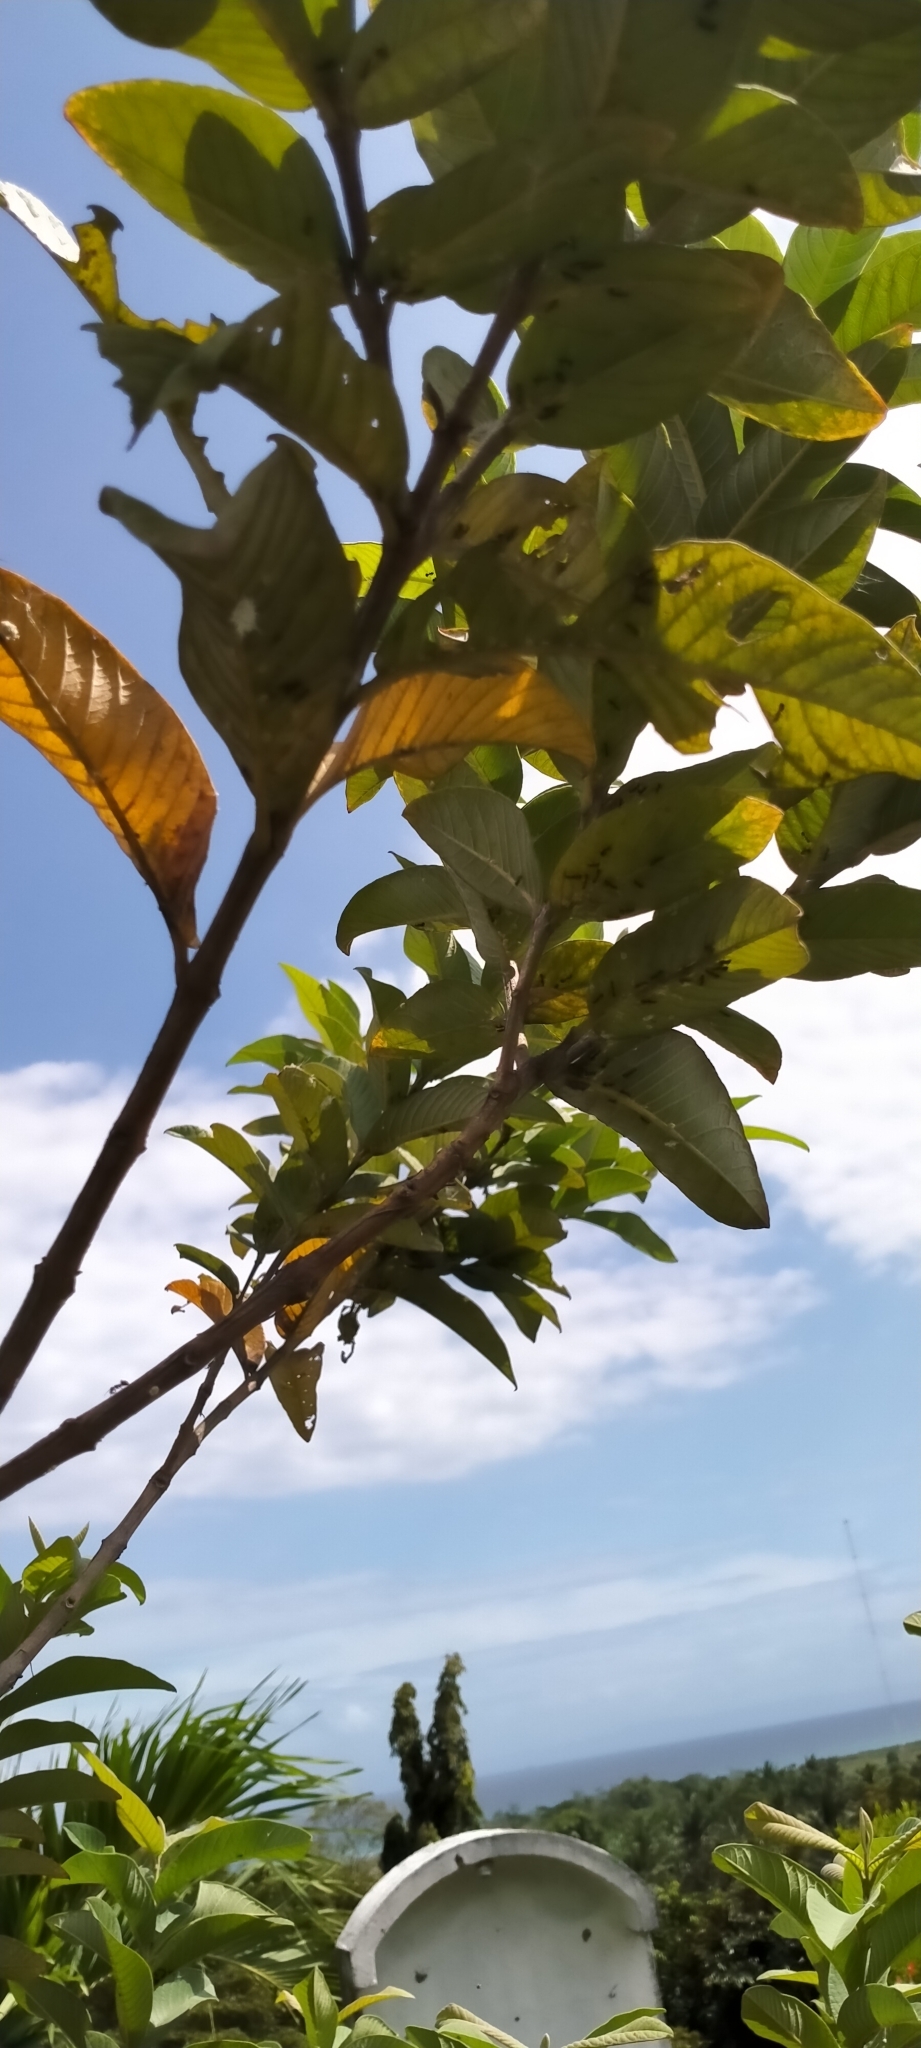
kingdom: Animalia
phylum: Arthropoda
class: Insecta
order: Hymenoptera
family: Formicidae
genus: Dolichoderus
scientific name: Dolichoderus thoracicus
